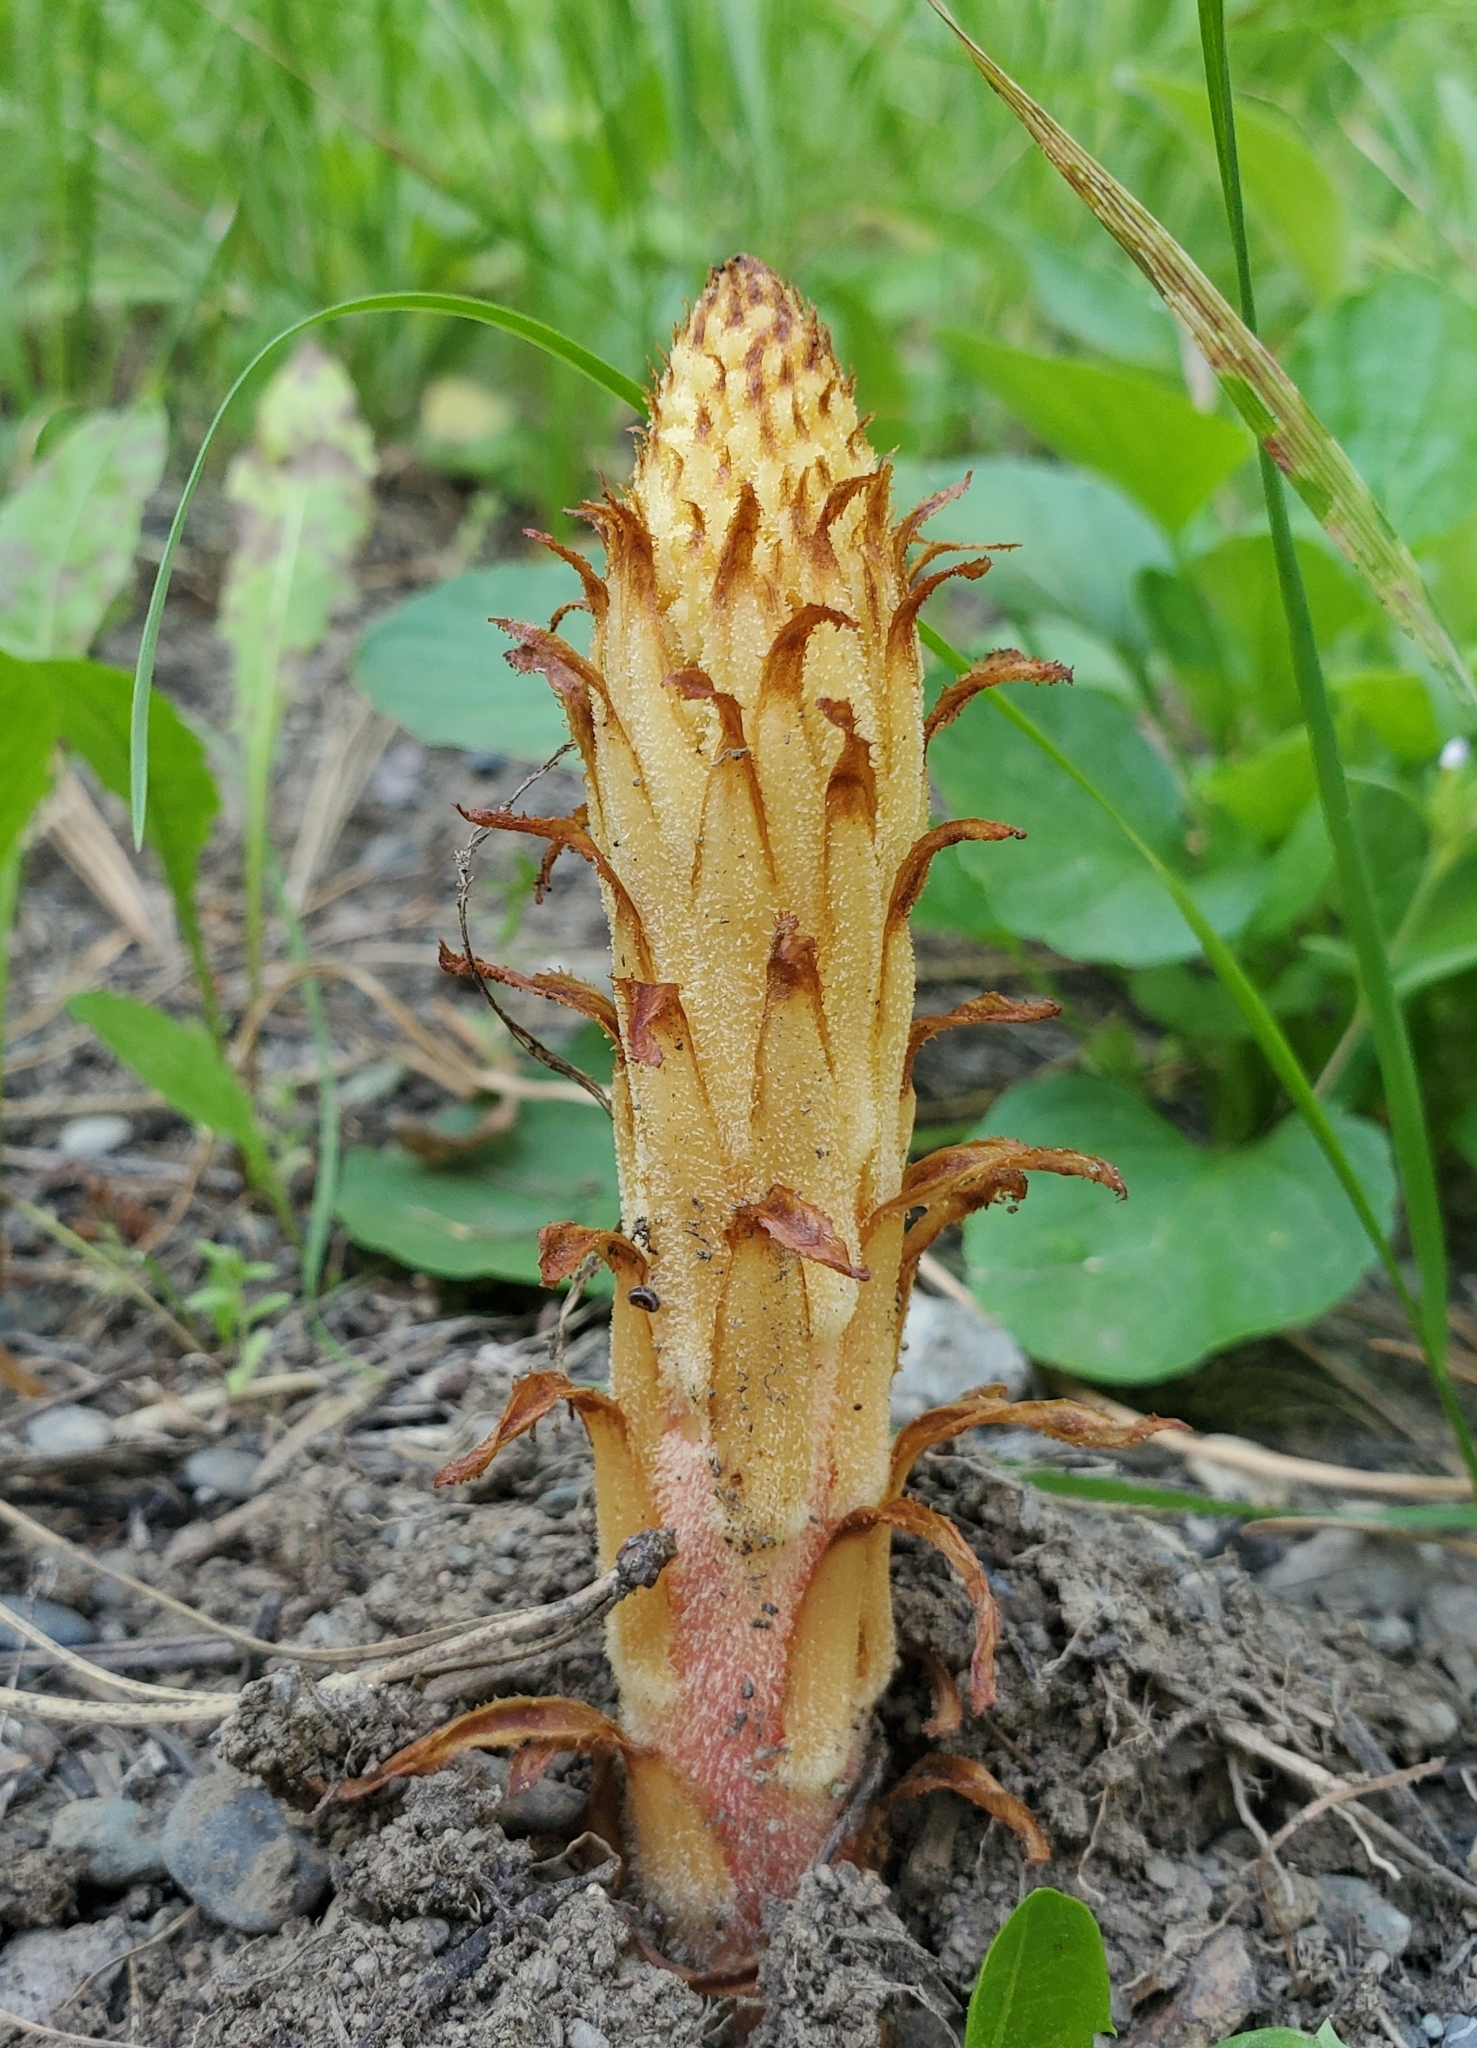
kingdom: Plantae
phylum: Tracheophyta
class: Magnoliopsida
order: Ericales
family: Ericaceae
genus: Pterospora
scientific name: Pterospora andromedea
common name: Giant bird's-nest
